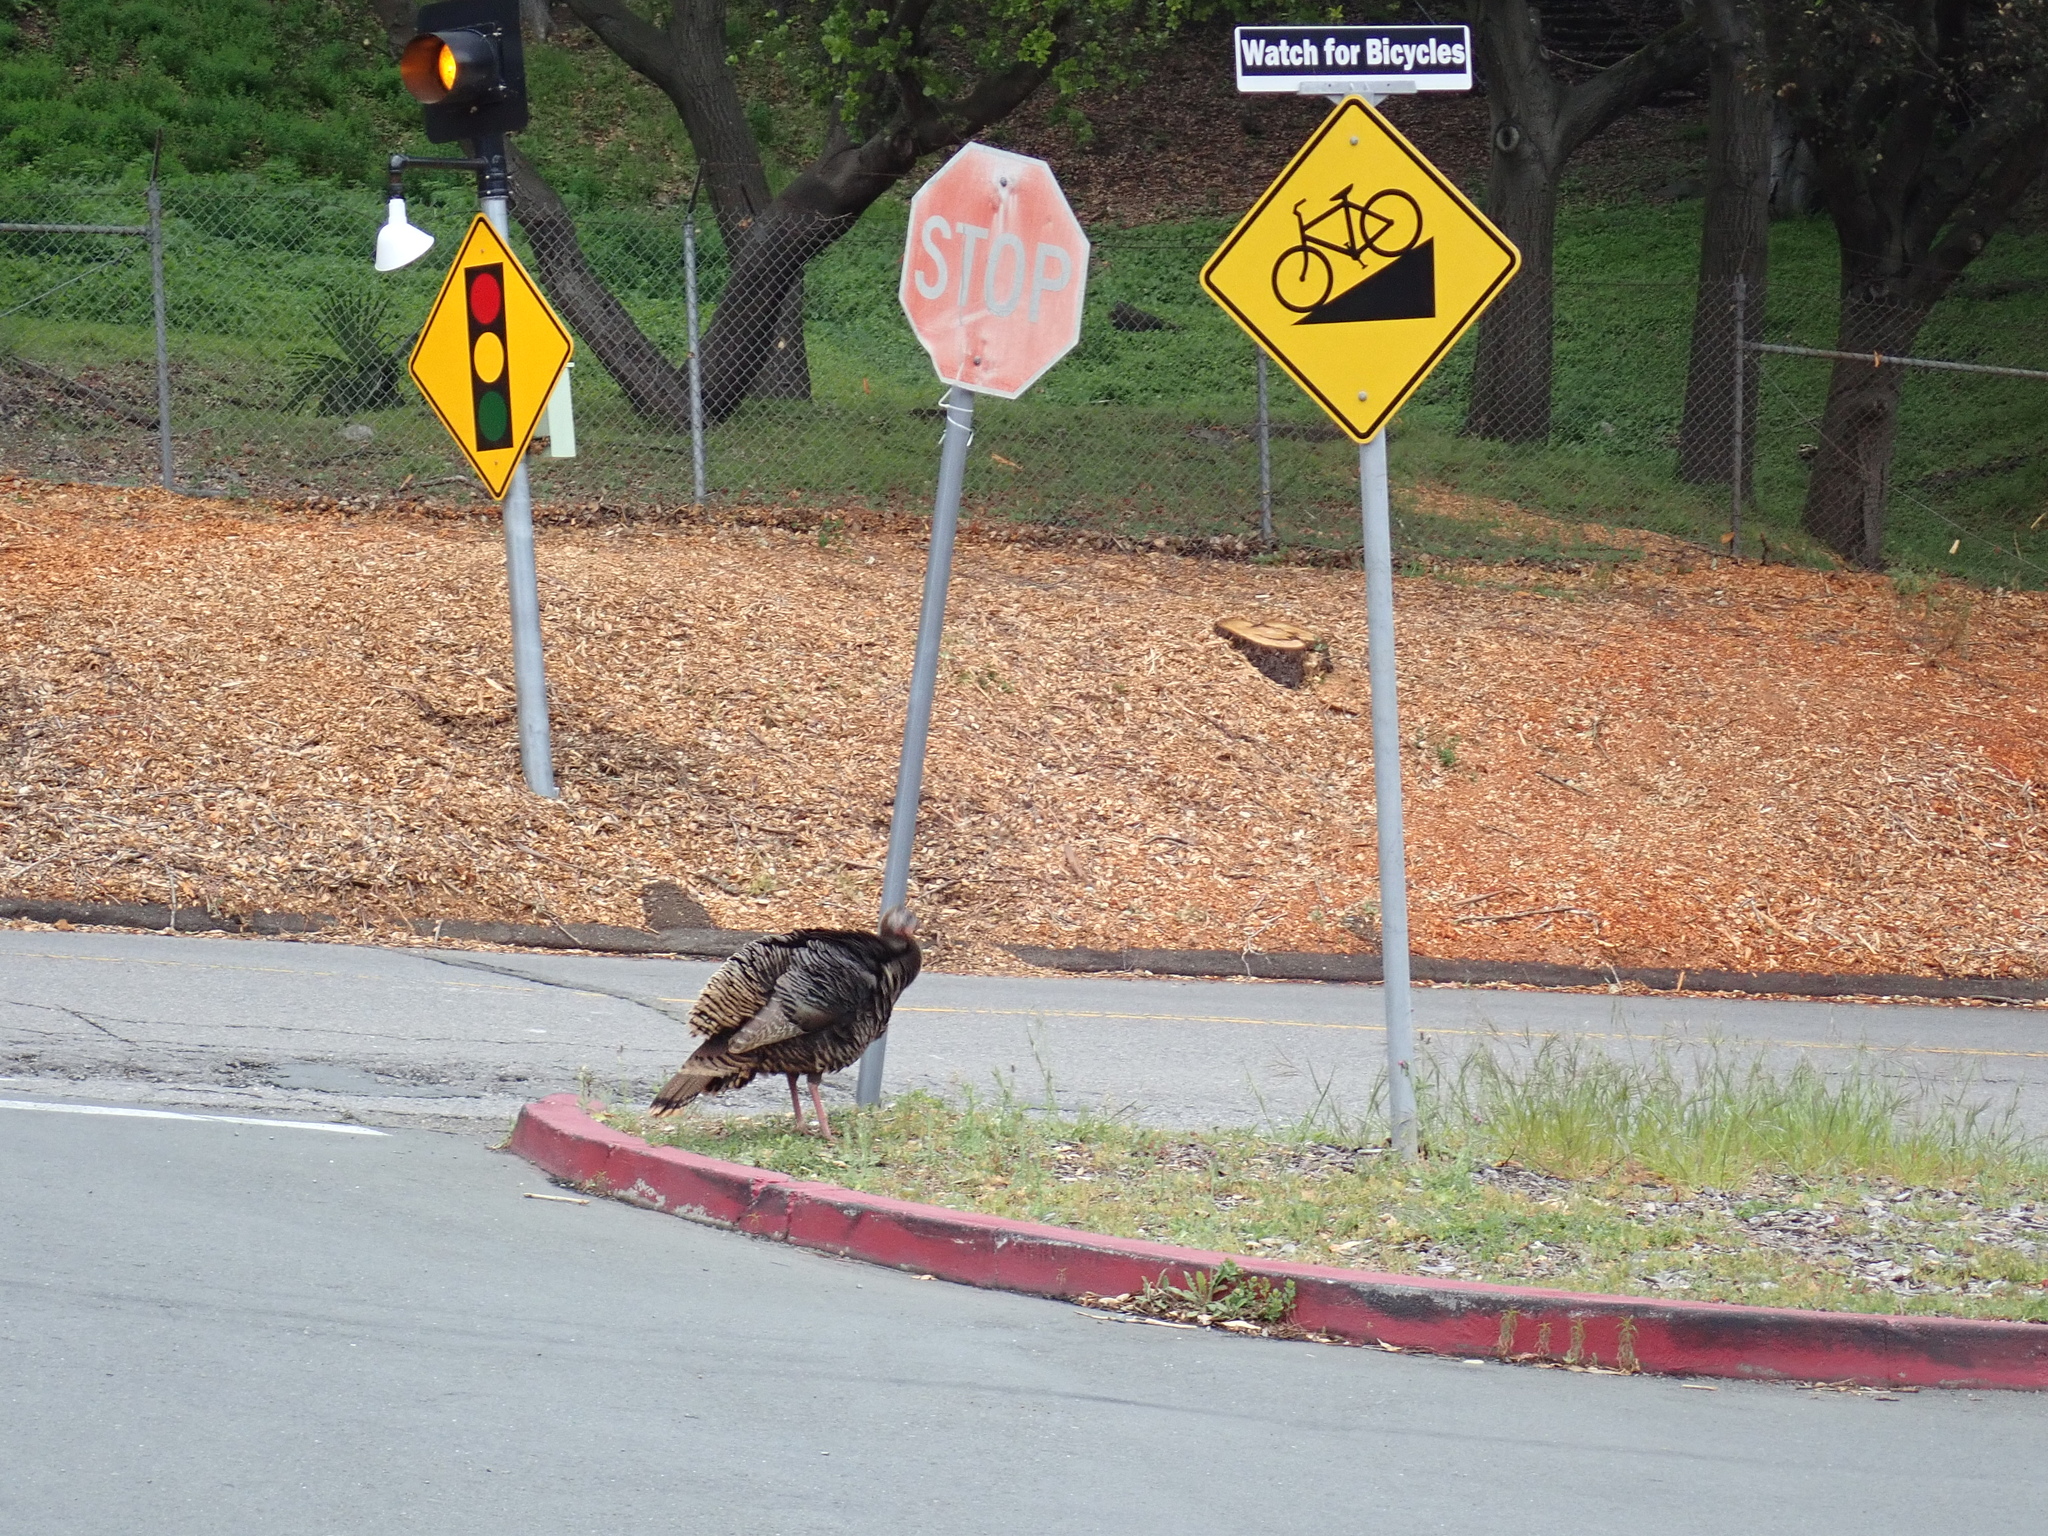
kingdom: Animalia
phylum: Chordata
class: Aves
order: Galliformes
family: Phasianidae
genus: Meleagris
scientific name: Meleagris gallopavo
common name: Wild turkey
